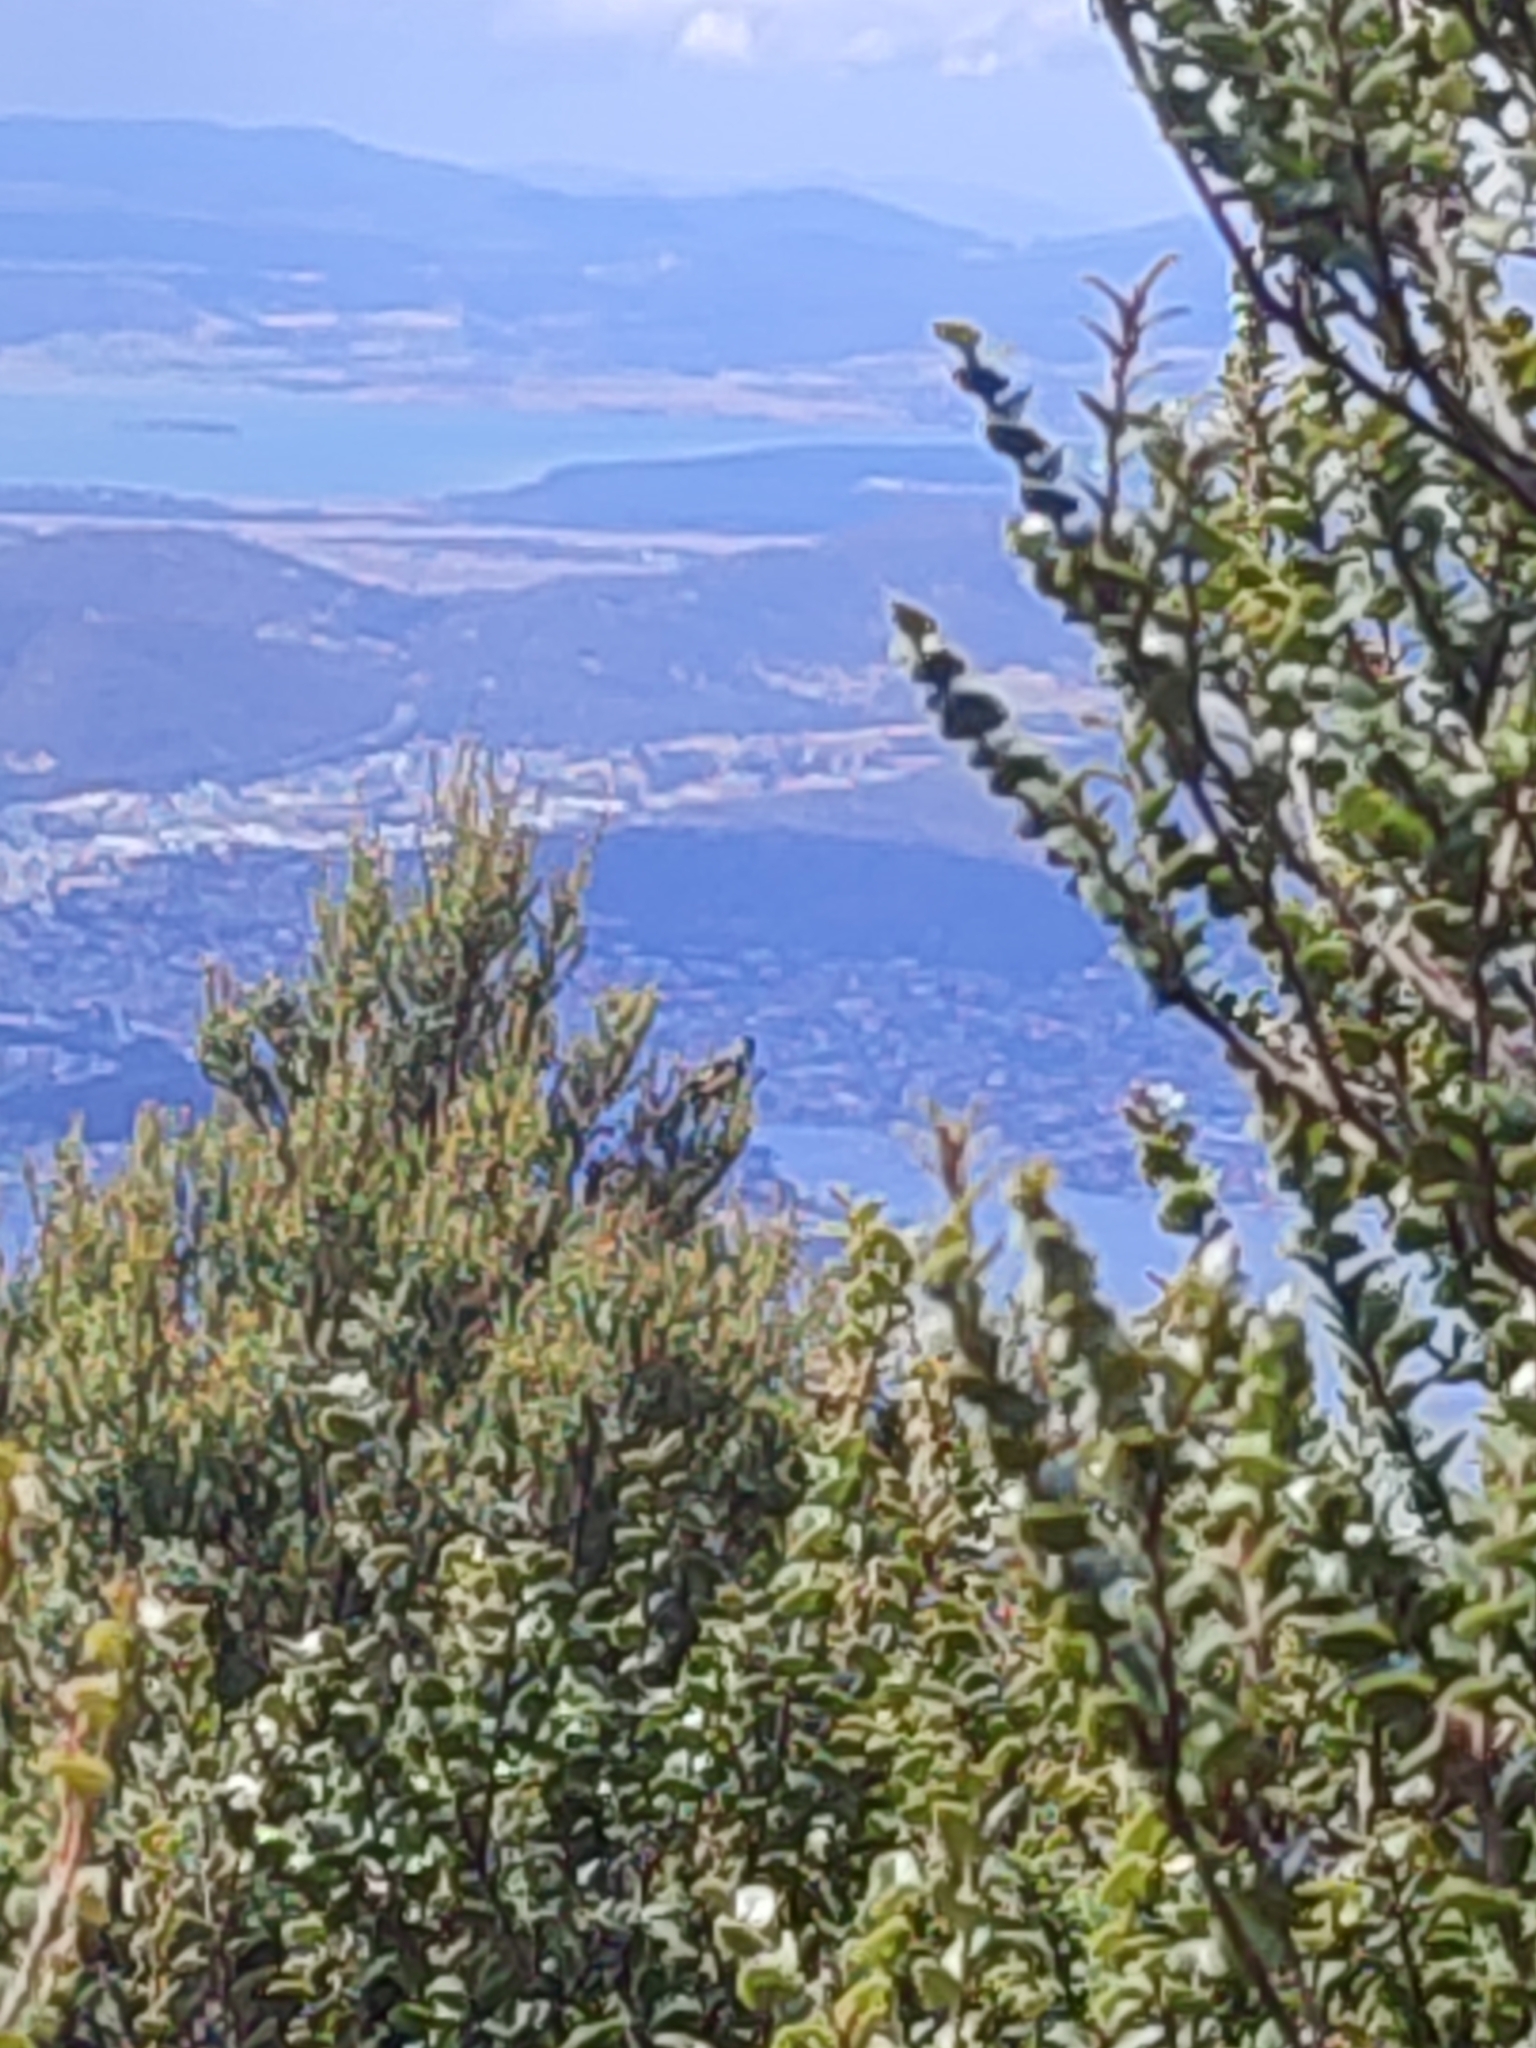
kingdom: Animalia
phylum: Chordata
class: Aves
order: Passeriformes
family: Meliphagidae
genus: Phylidonyris
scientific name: Phylidonyris pyrrhopterus
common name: Crescent honeyeater
